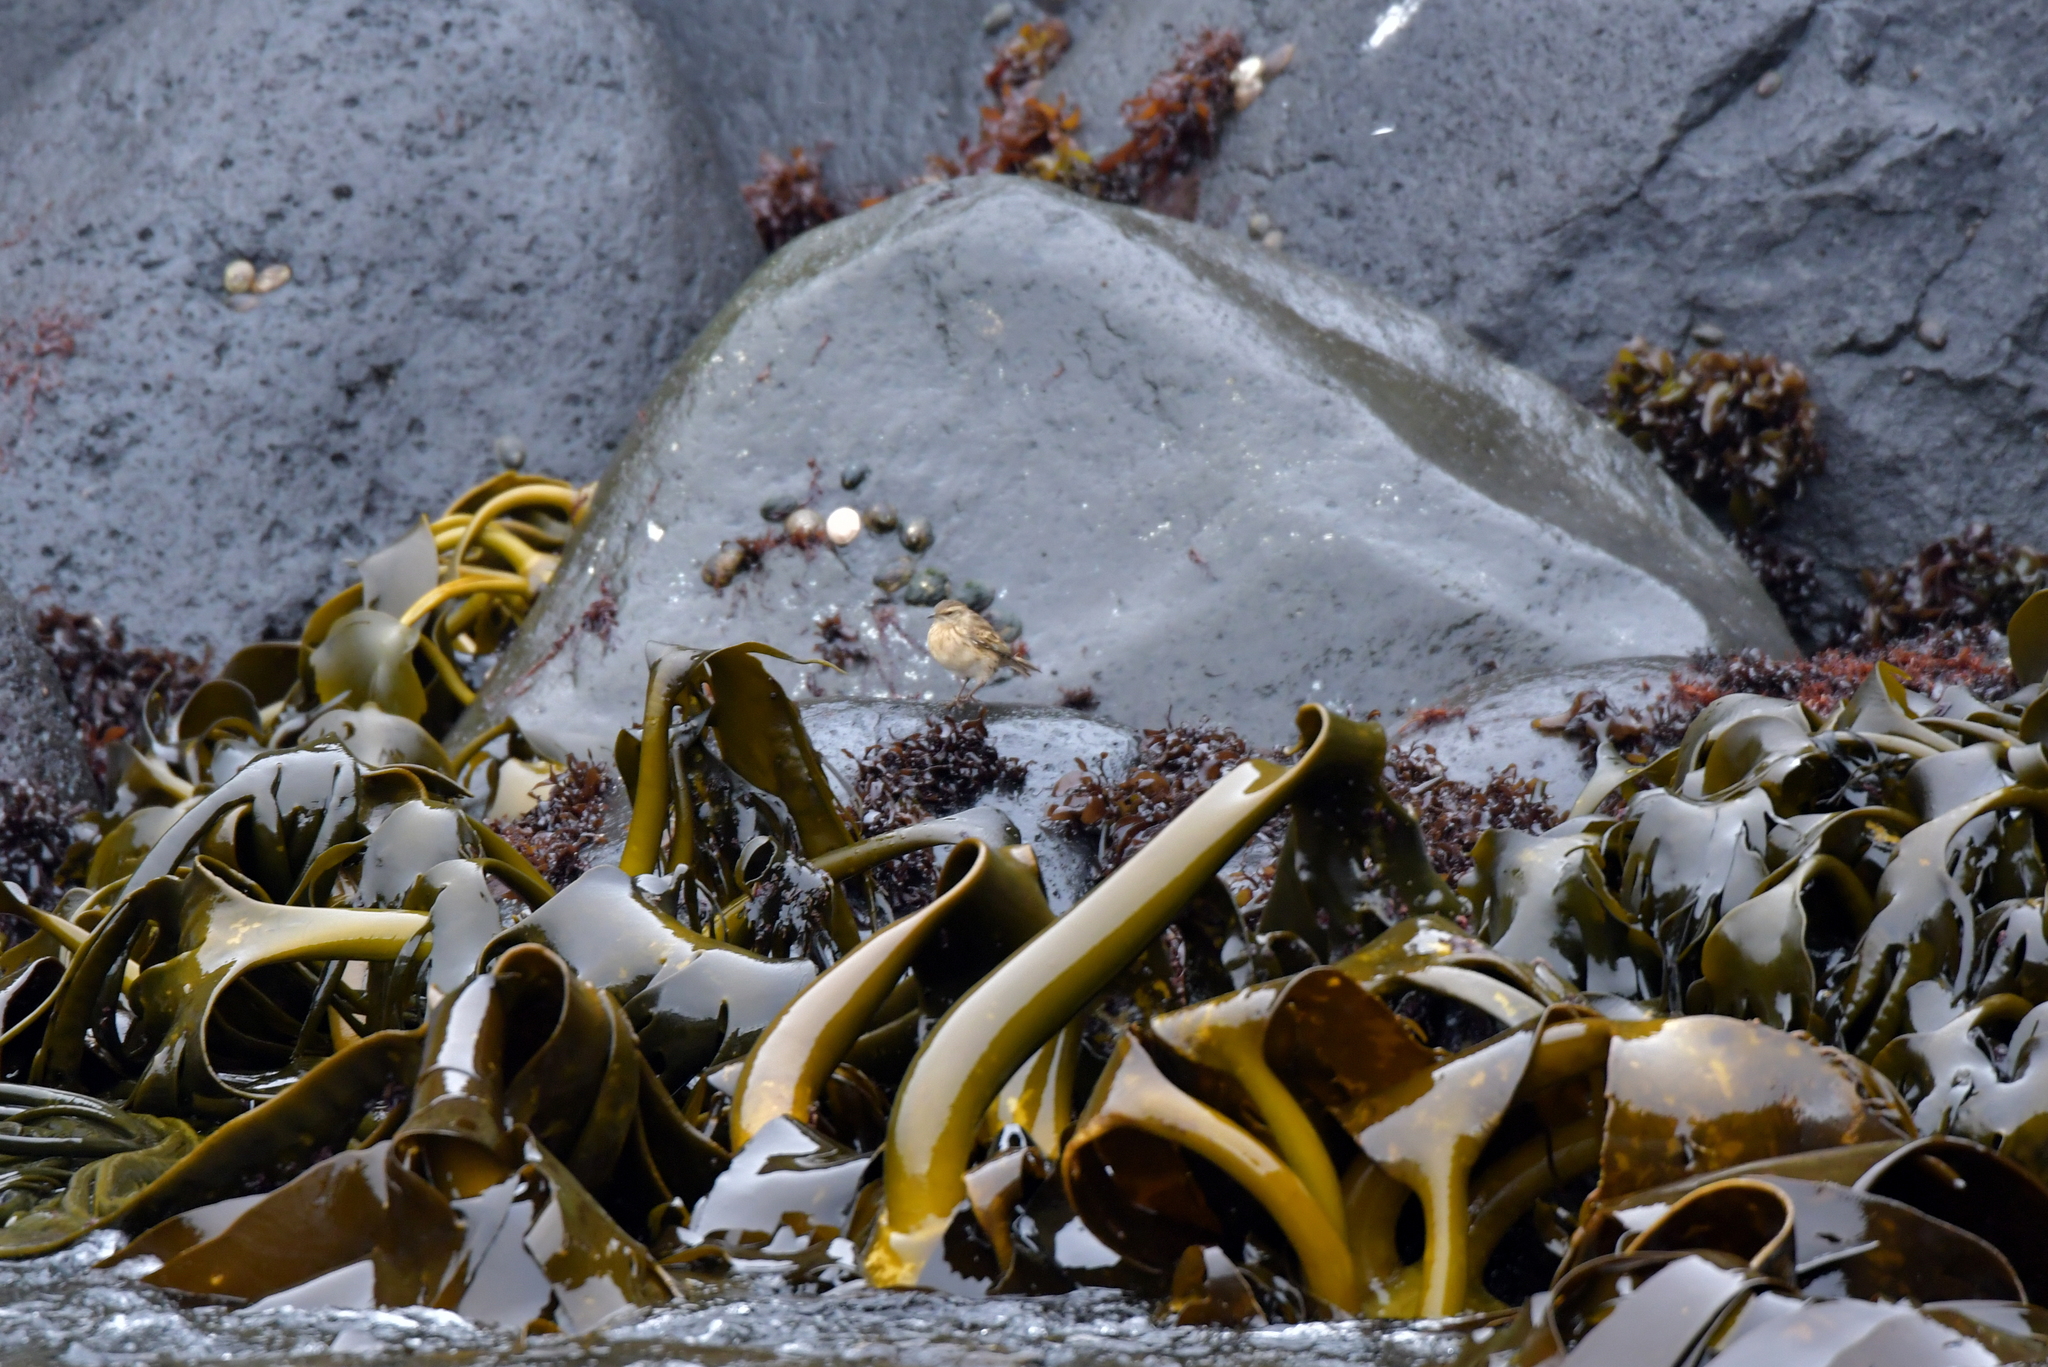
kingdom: Animalia
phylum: Chordata
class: Aves
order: Passeriformes
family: Motacillidae
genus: Anthus
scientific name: Anthus novaeseelandiae
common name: New zealand pipit
